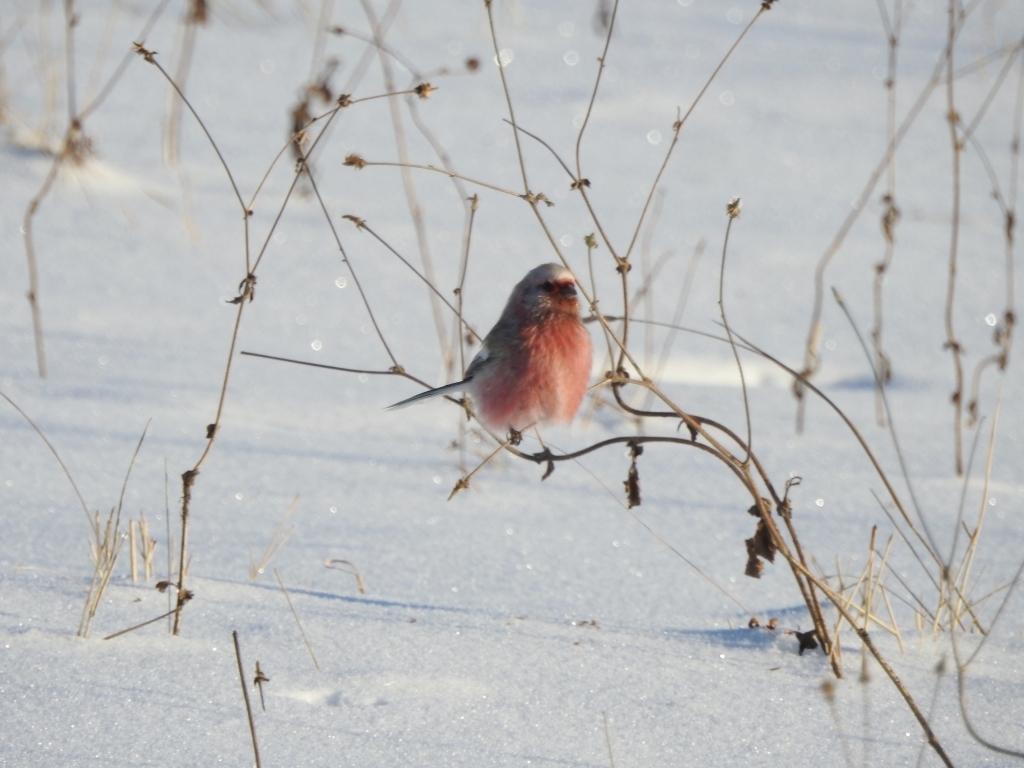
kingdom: Animalia
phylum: Chordata
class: Aves
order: Passeriformes
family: Fringillidae
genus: Carpodacus
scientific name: Carpodacus sibiricus
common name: Long-tailed rosefinch
